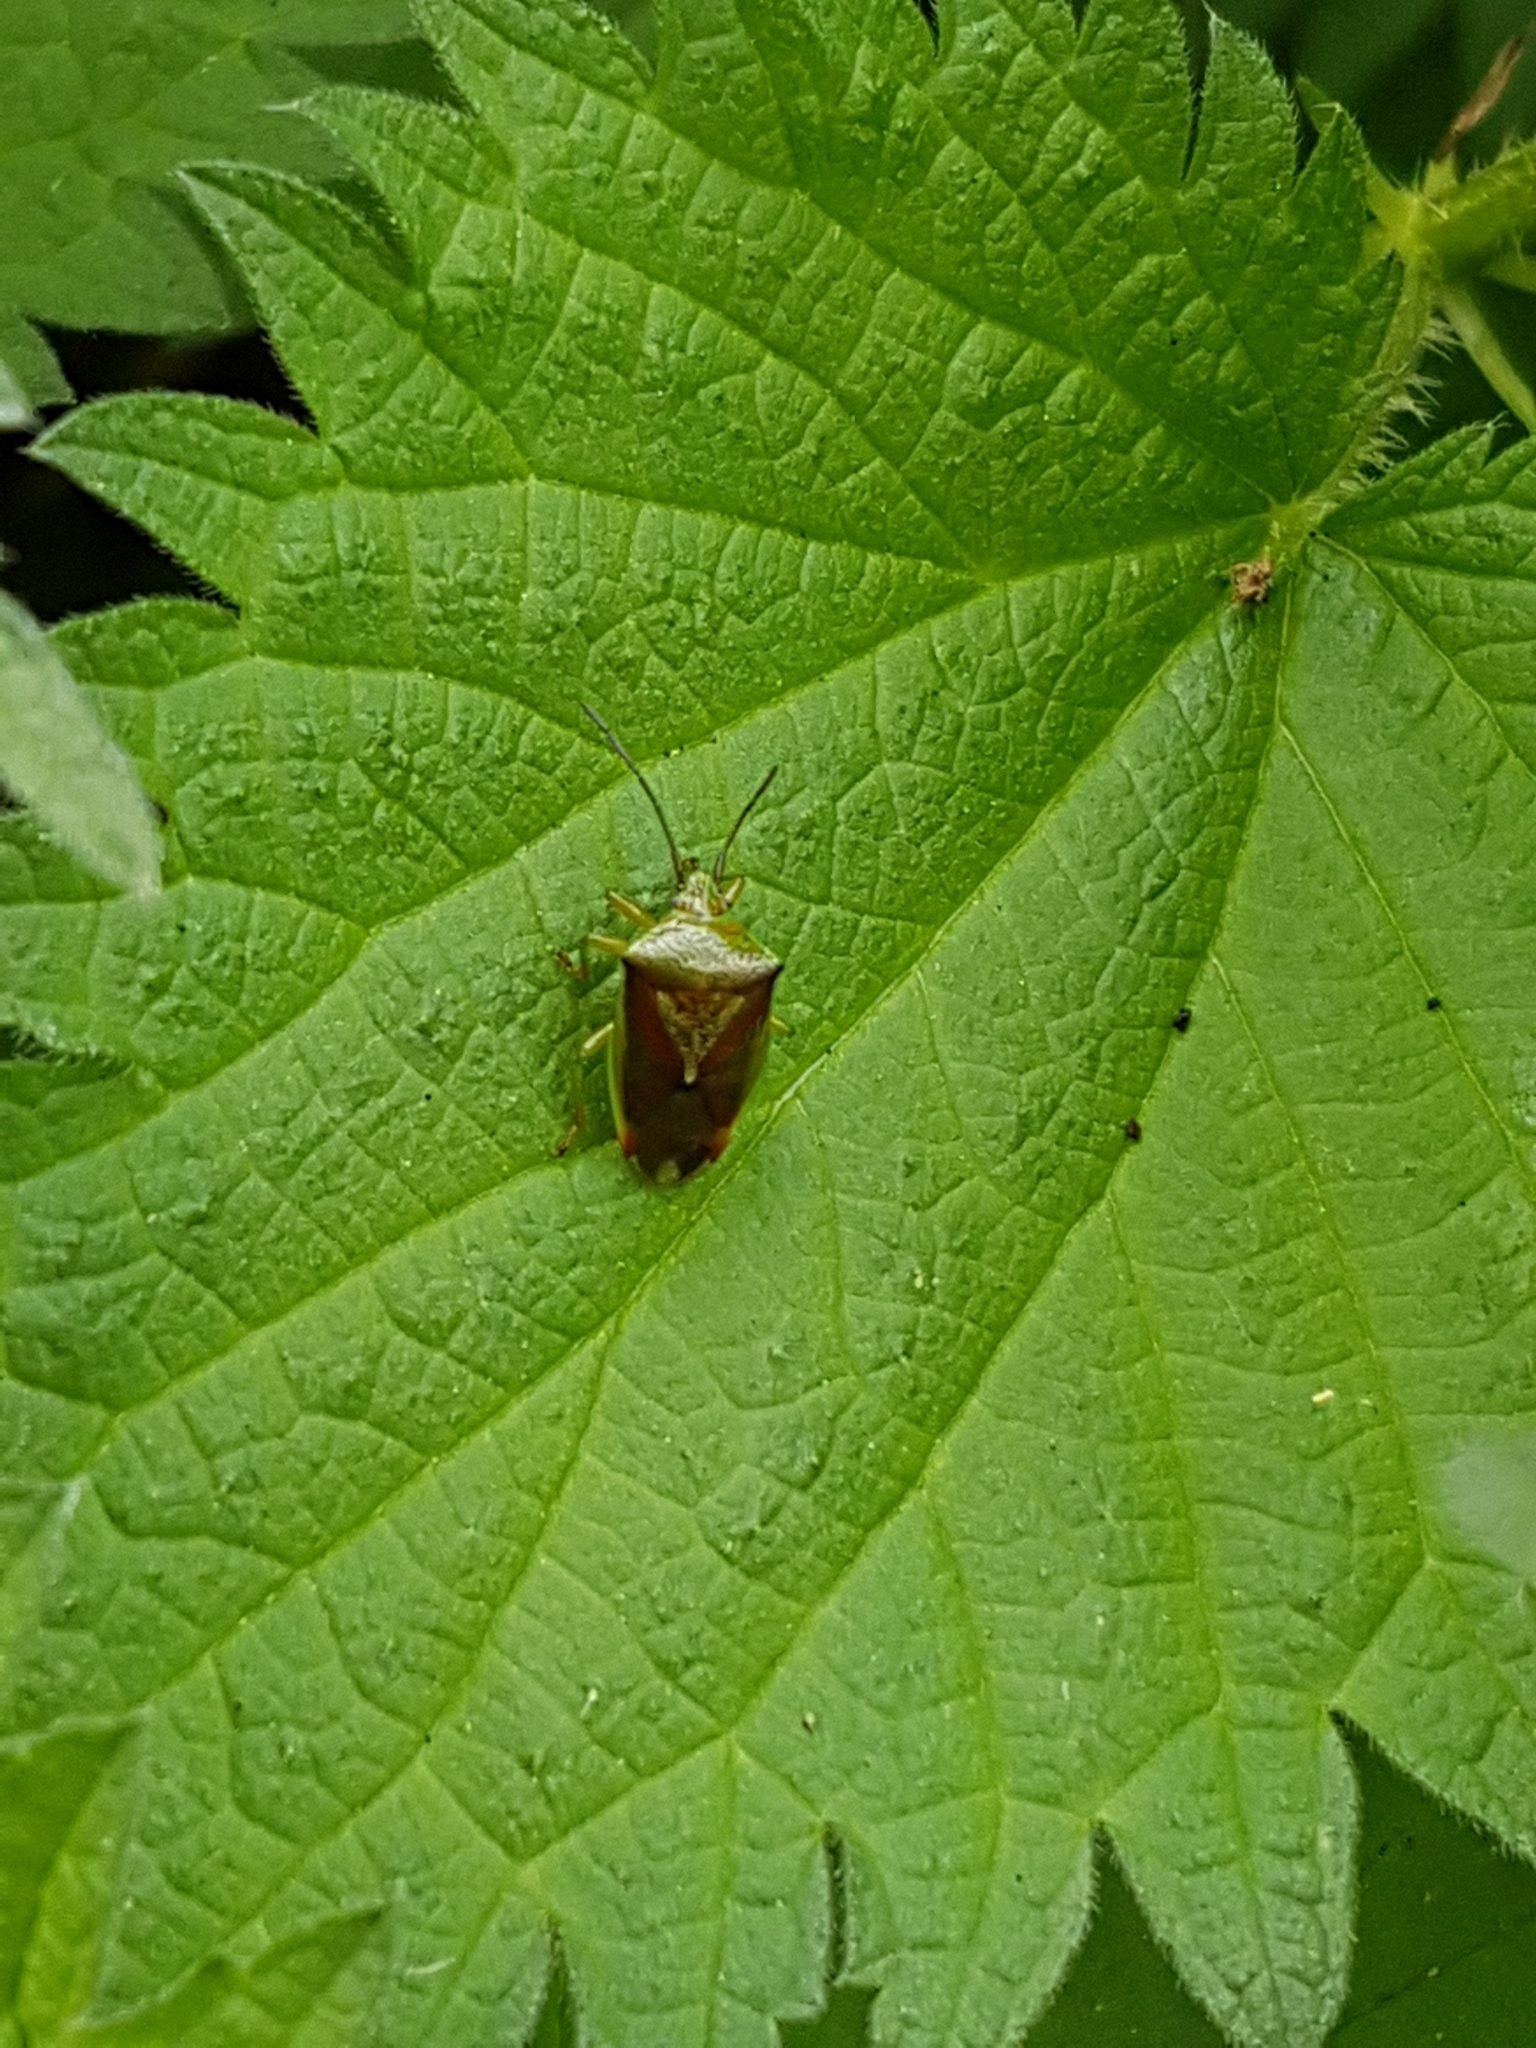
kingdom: Animalia
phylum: Arthropoda
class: Insecta
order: Hemiptera
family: Acanthosomatidae
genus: Elasmostethus
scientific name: Elasmostethus interstinctus
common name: Birch shieldbug
